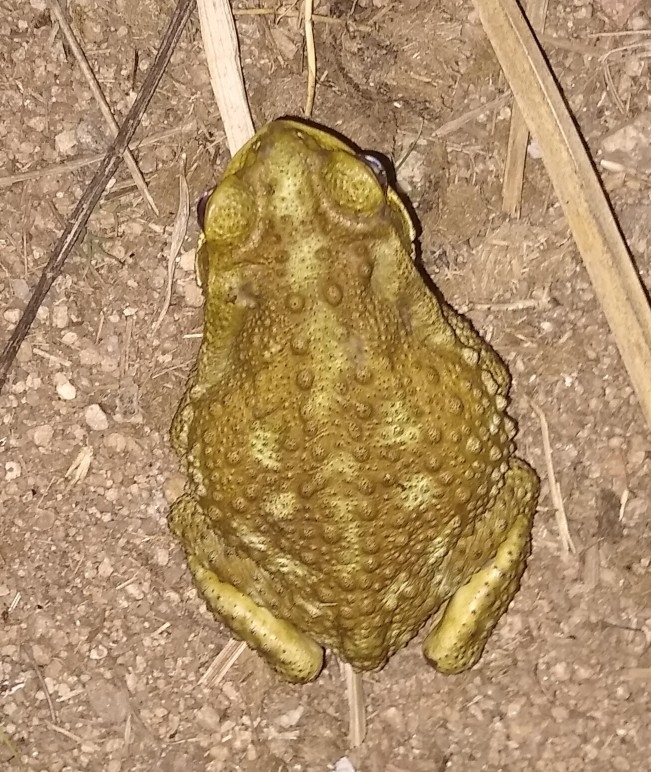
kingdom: Animalia
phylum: Chordata
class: Amphibia
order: Anura
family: Bufonidae
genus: Rhinella
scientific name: Rhinella arenarum
